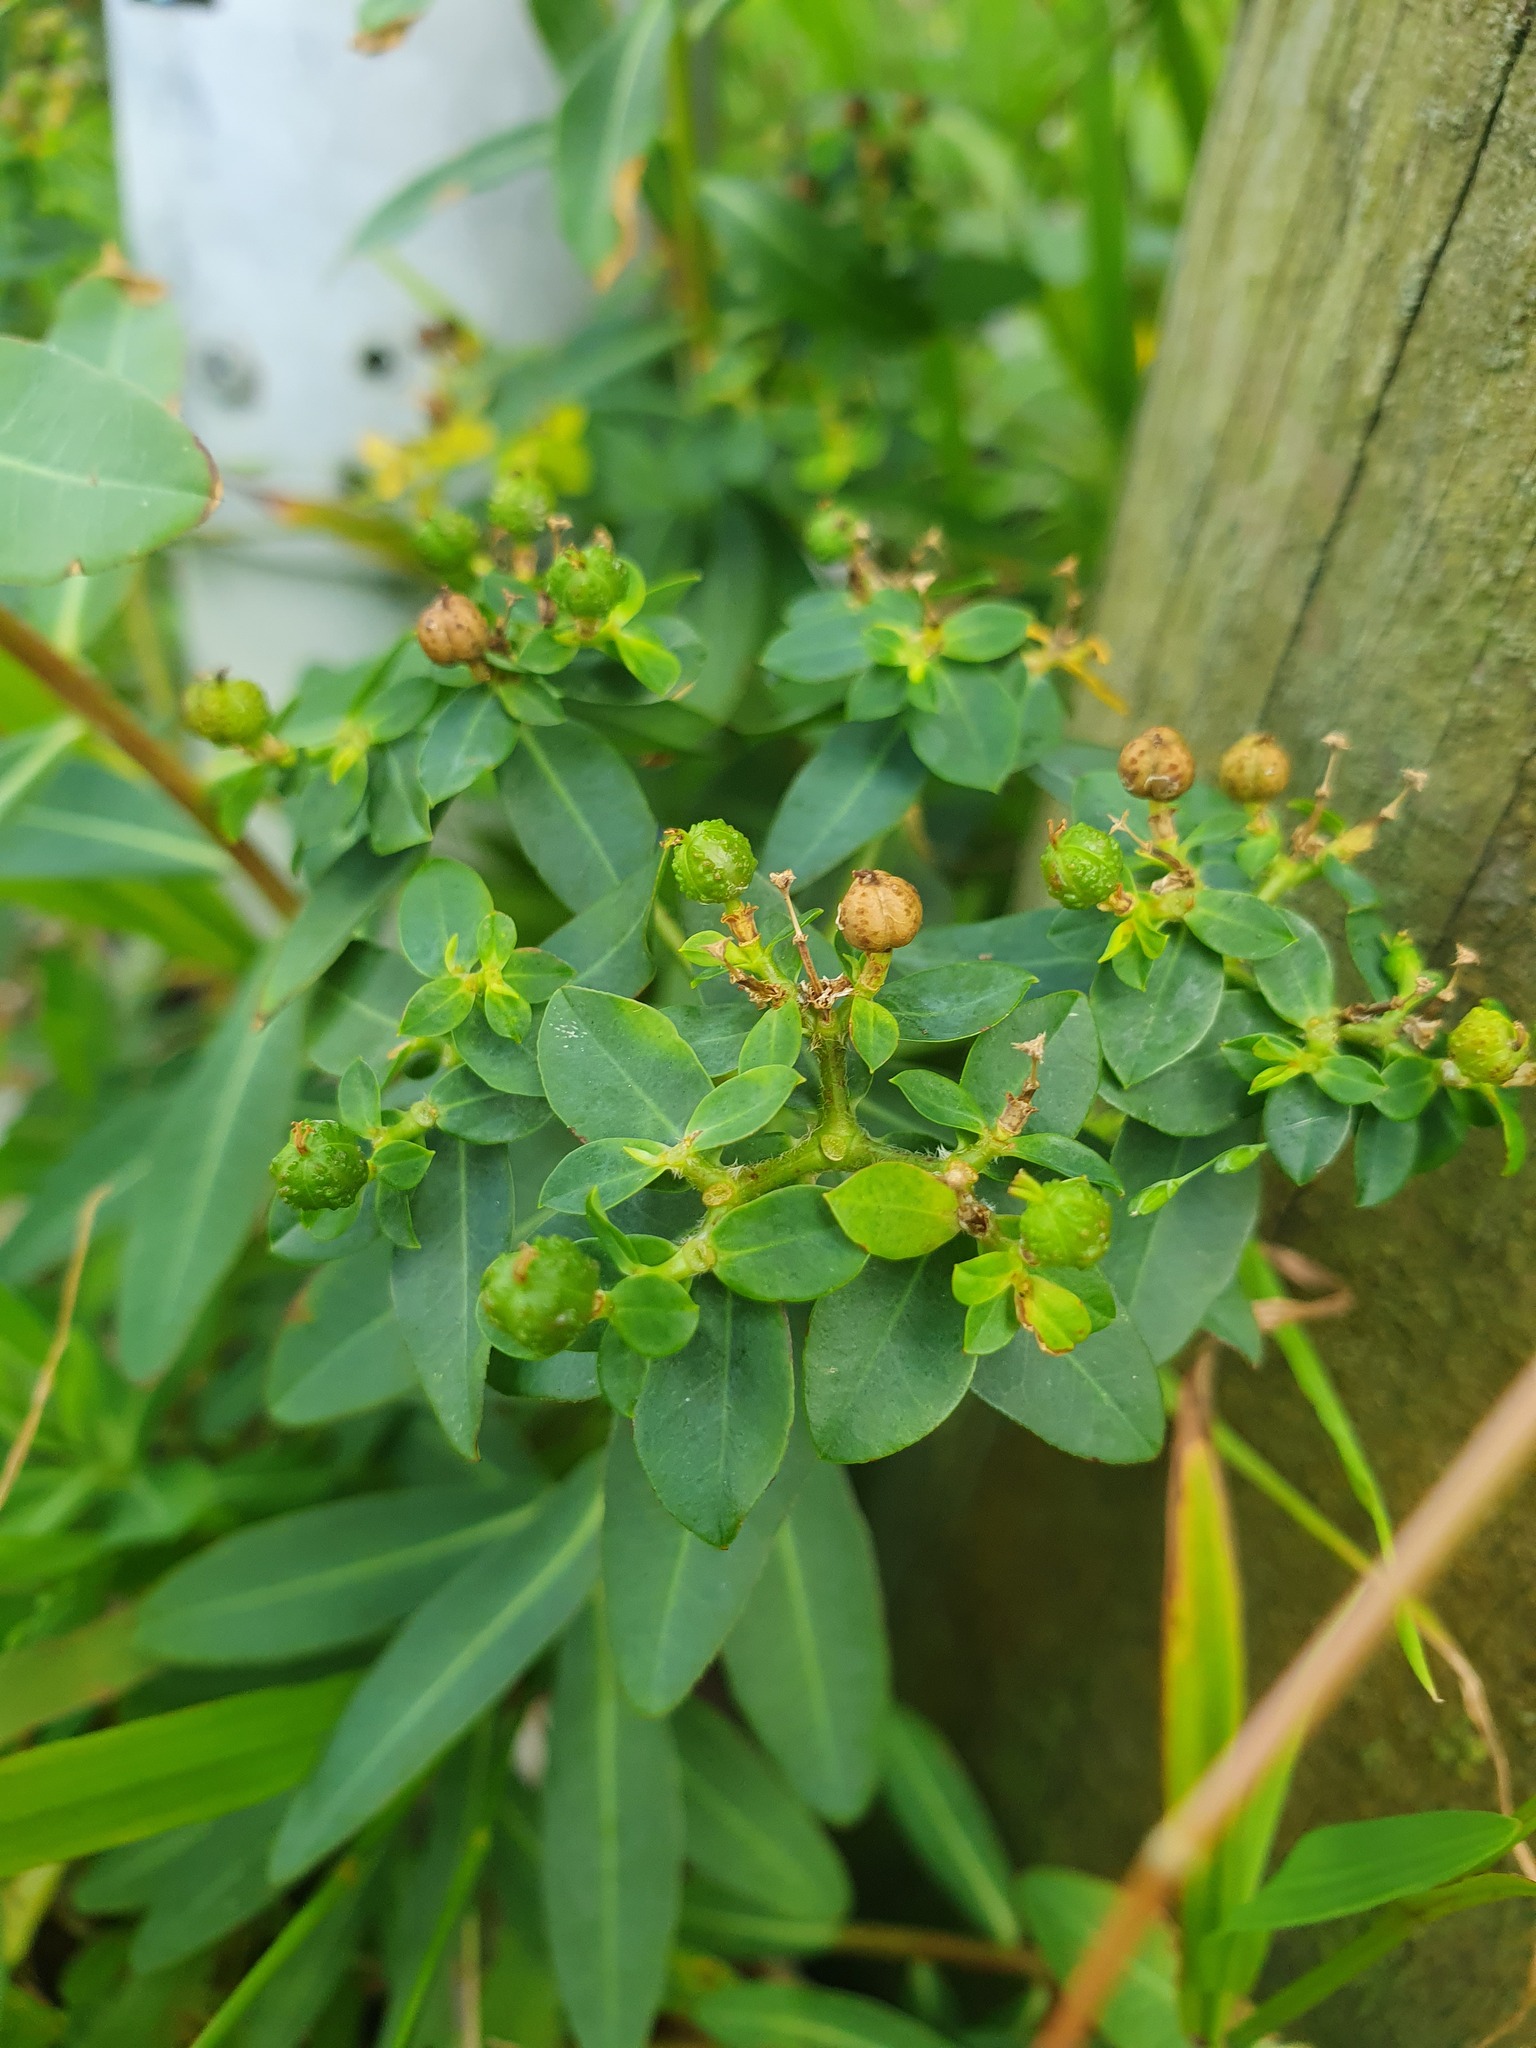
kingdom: Plantae
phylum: Tracheophyta
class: Magnoliopsida
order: Malpighiales
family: Euphorbiaceae
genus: Euphorbia
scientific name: Euphorbia oblongata
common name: Balkan spurge
